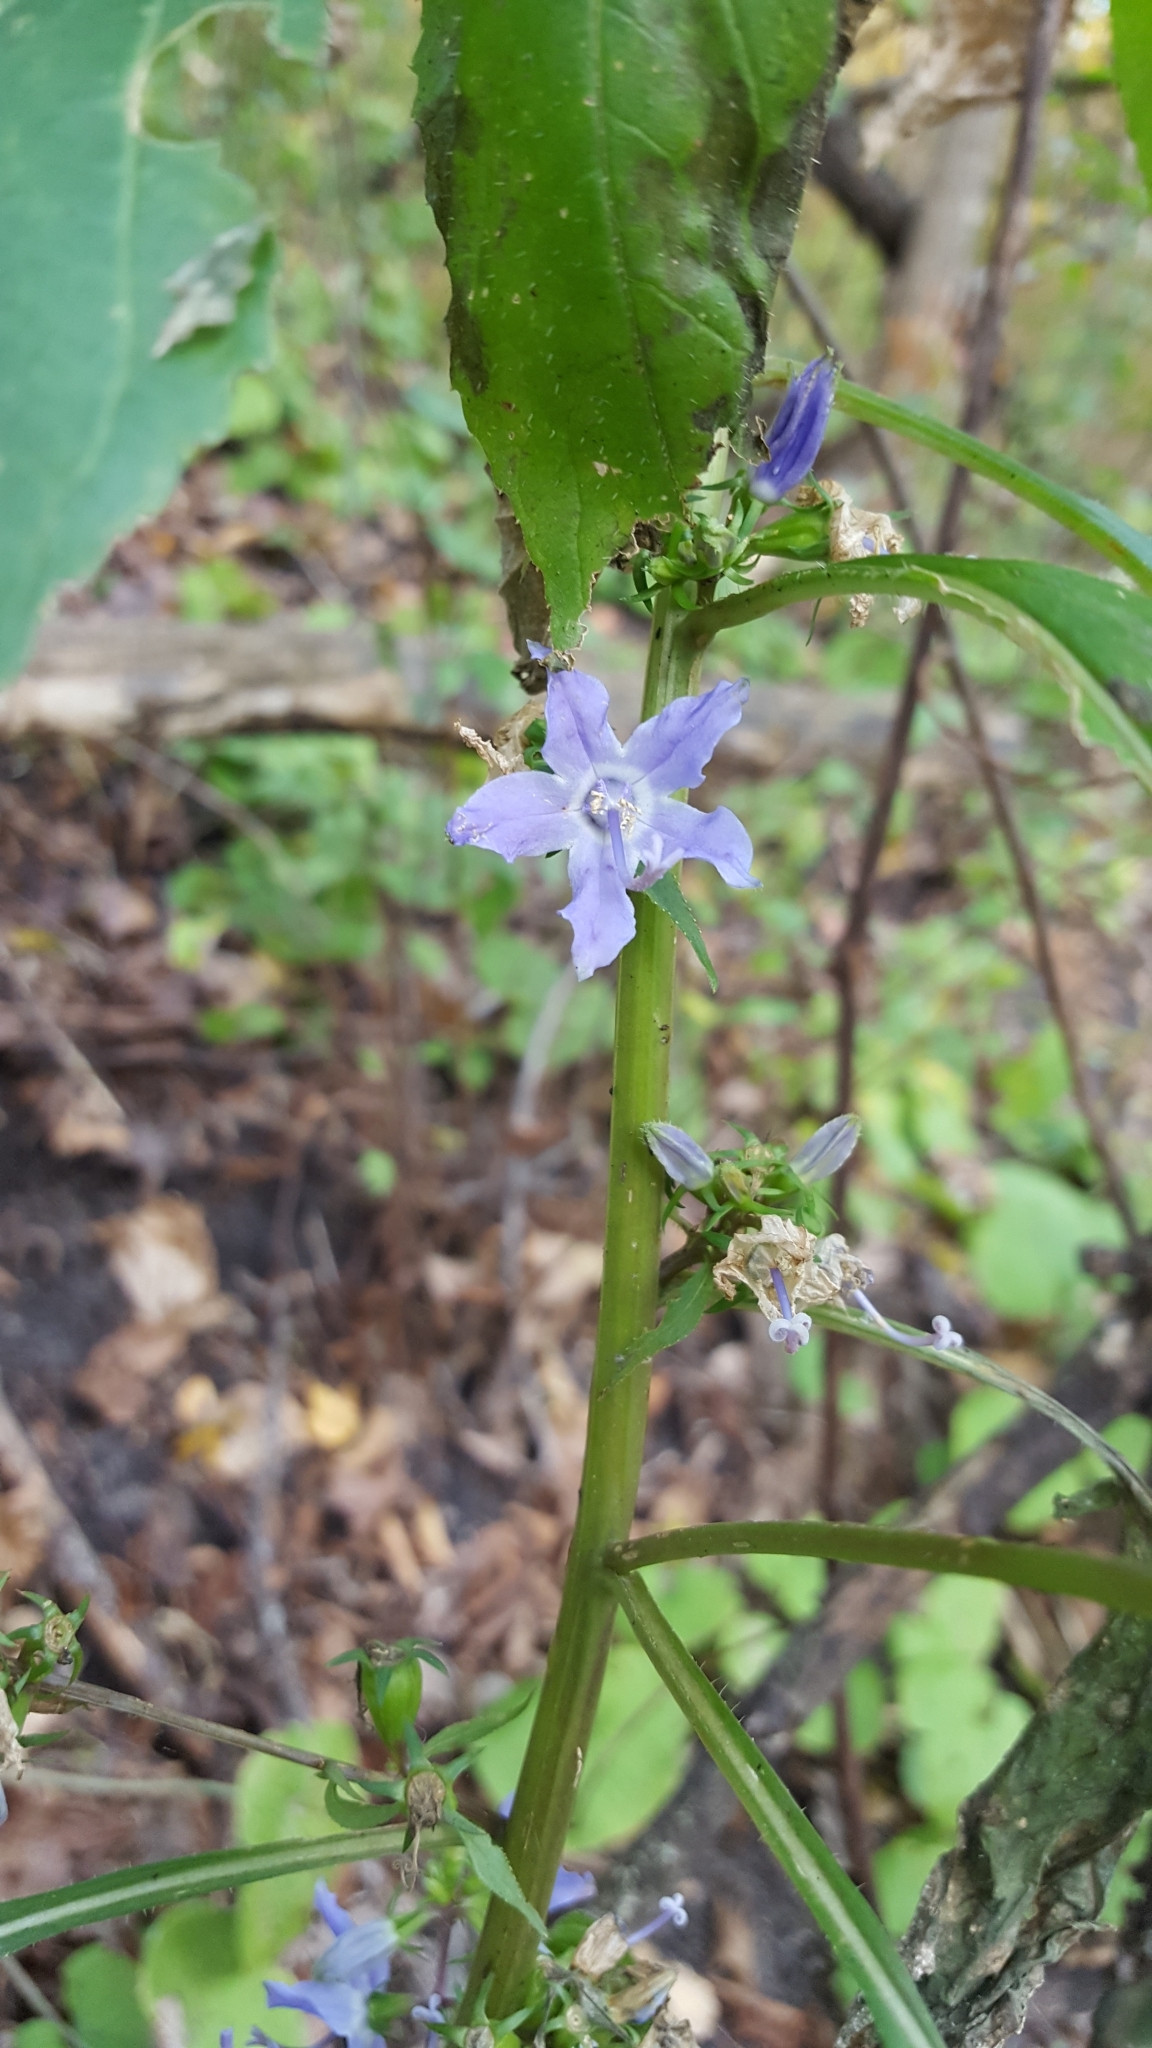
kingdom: Plantae
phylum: Tracheophyta
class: Magnoliopsida
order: Asterales
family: Campanulaceae
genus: Campanulastrum
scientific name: Campanulastrum americanum
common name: American bellflower
